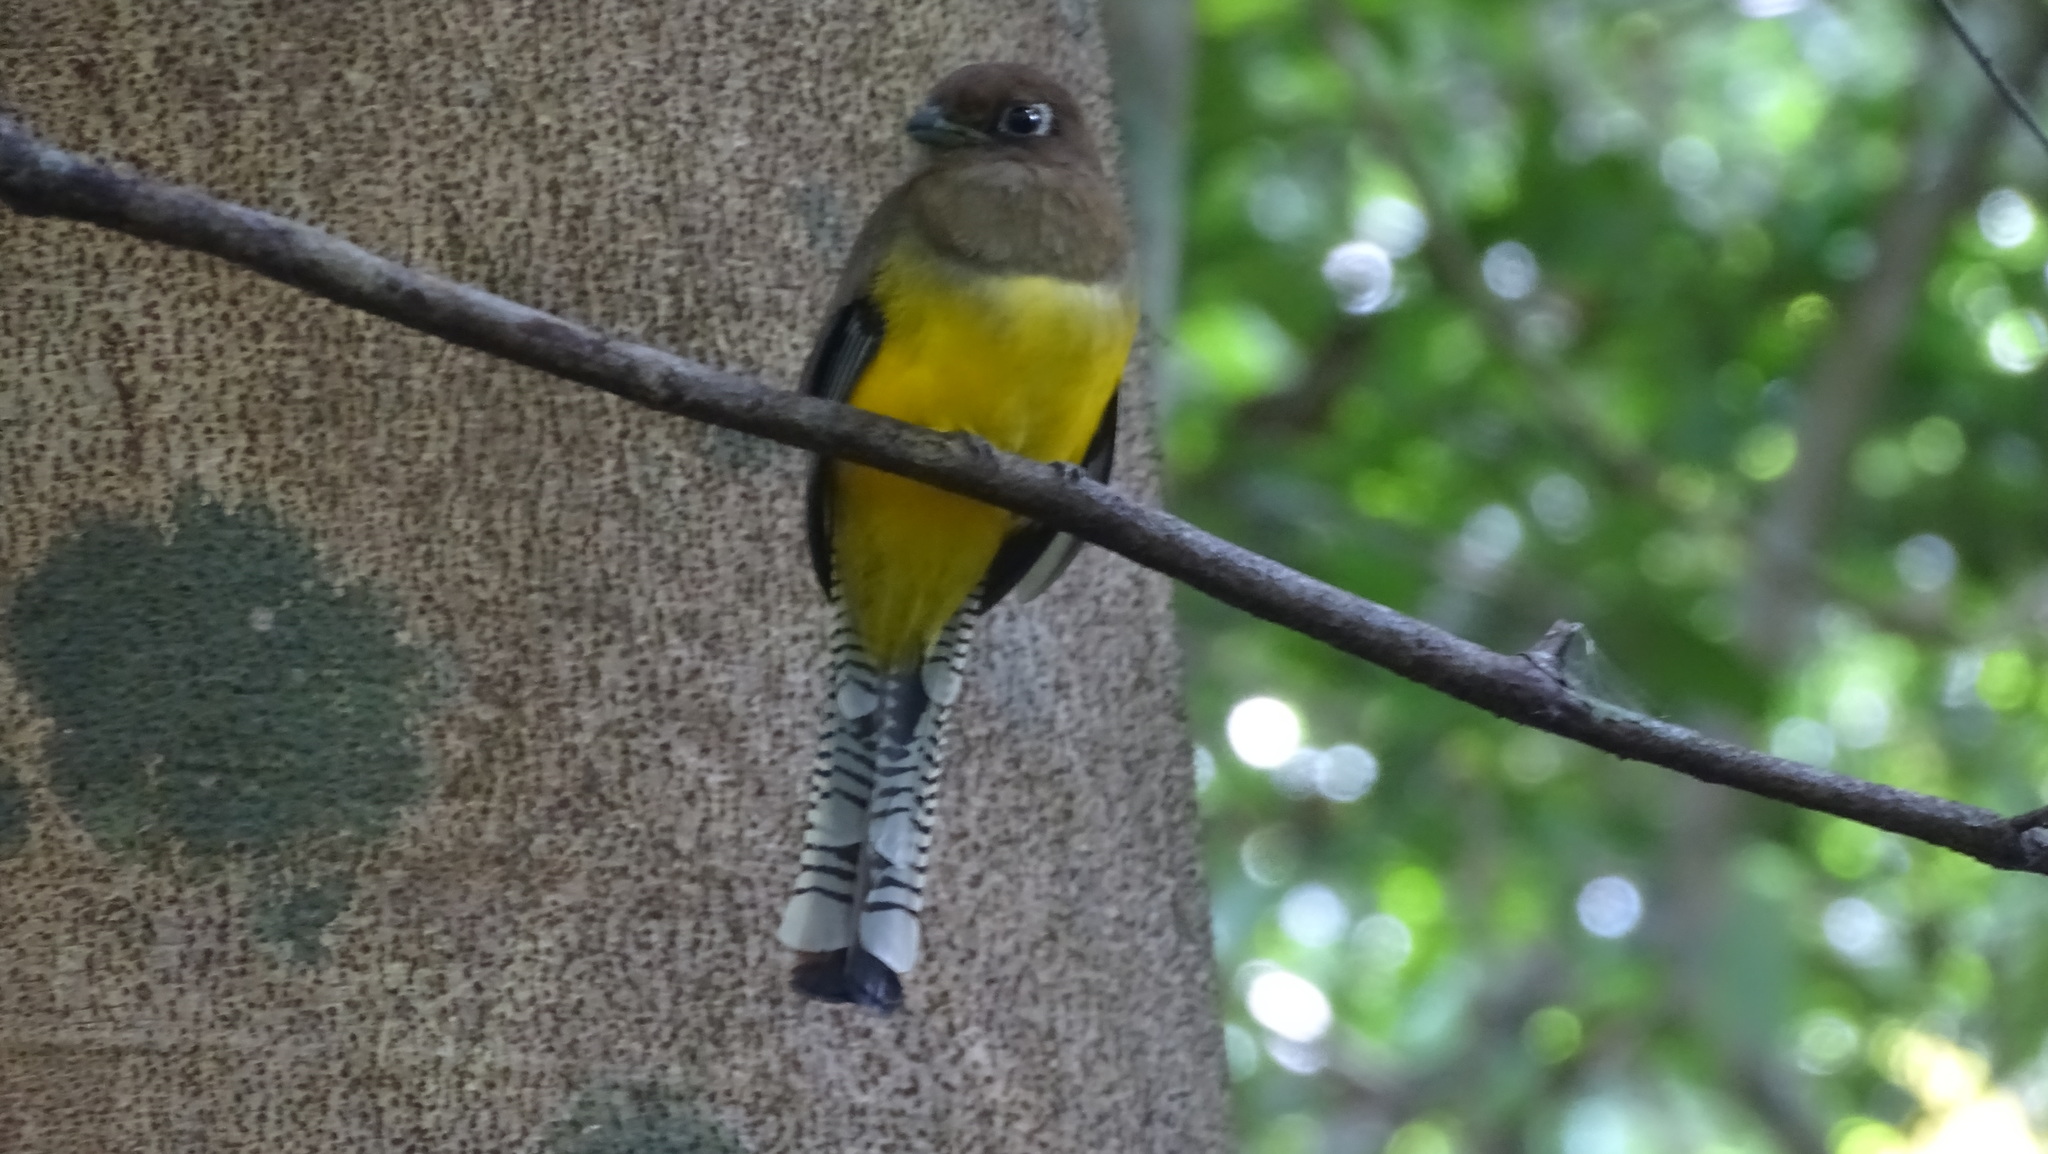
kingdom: Animalia
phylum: Chordata
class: Aves
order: Trogoniformes
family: Trogonidae
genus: Trogon
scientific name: Trogon rufus
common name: Black-throated trogon
